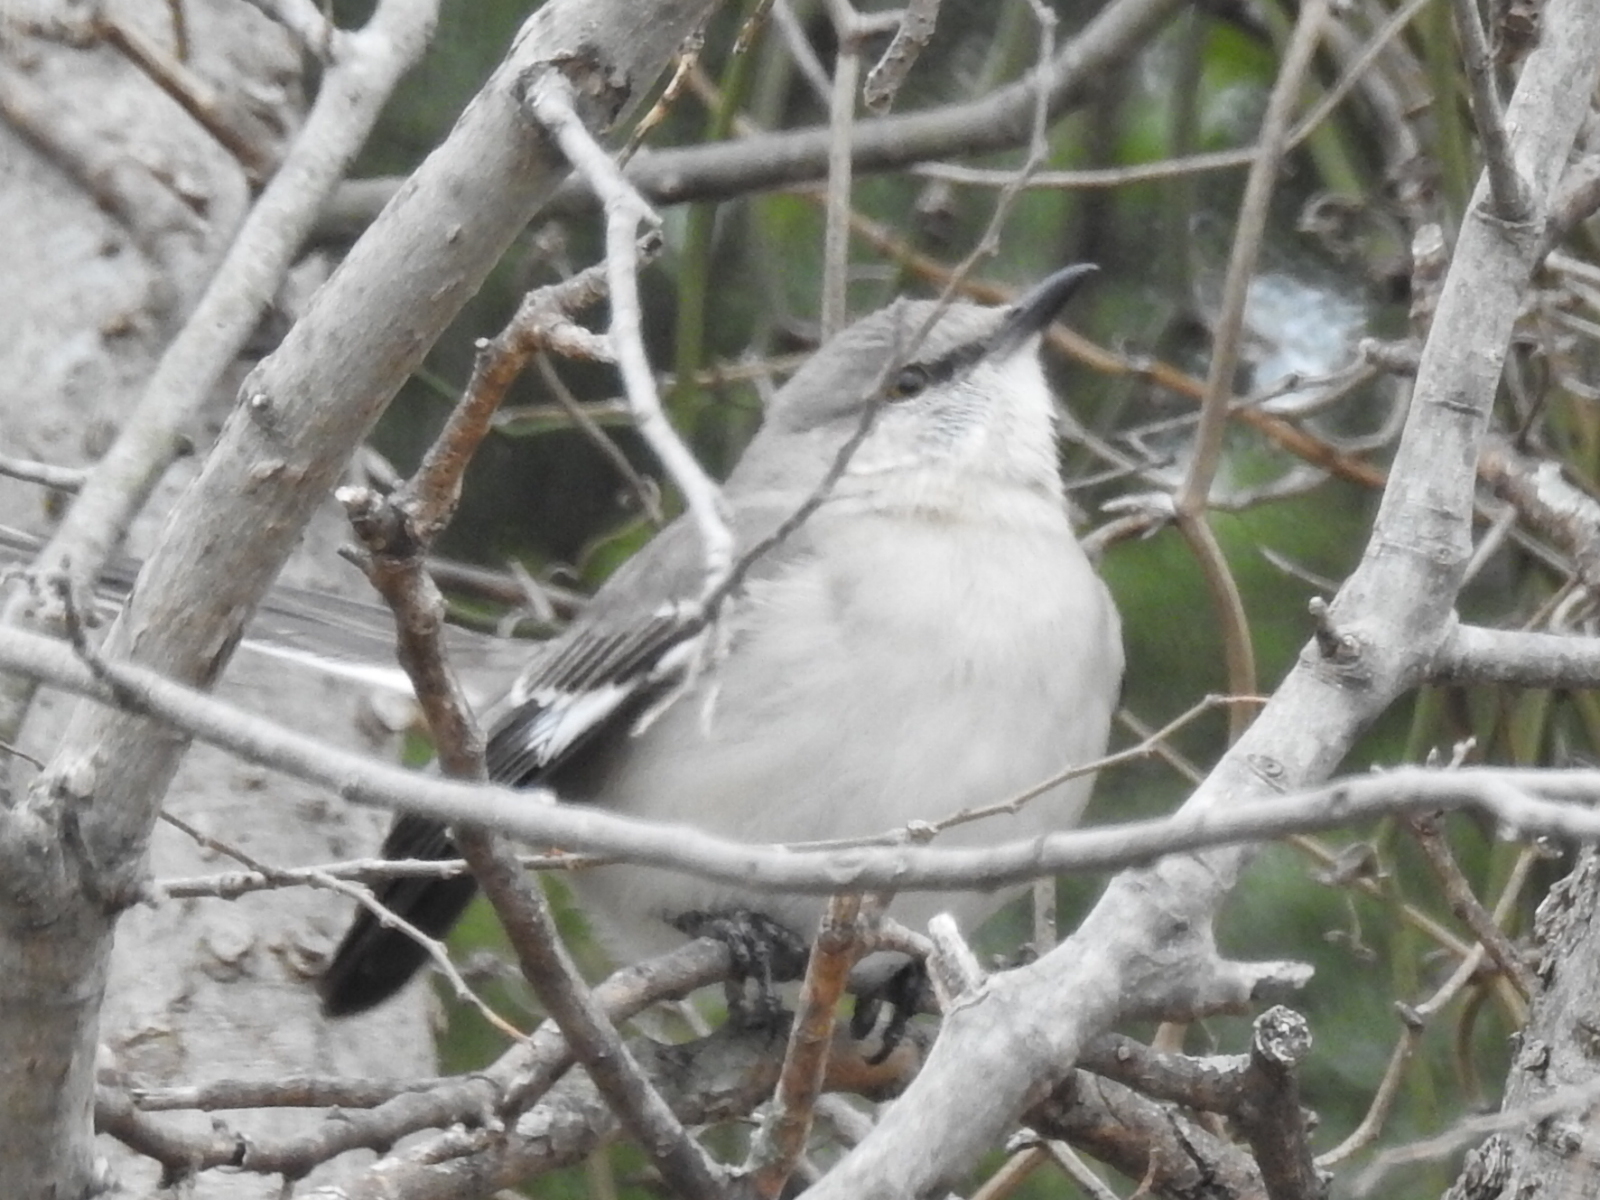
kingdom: Animalia
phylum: Chordata
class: Aves
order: Passeriformes
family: Mimidae
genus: Mimus
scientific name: Mimus polyglottos
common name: Northern mockingbird
